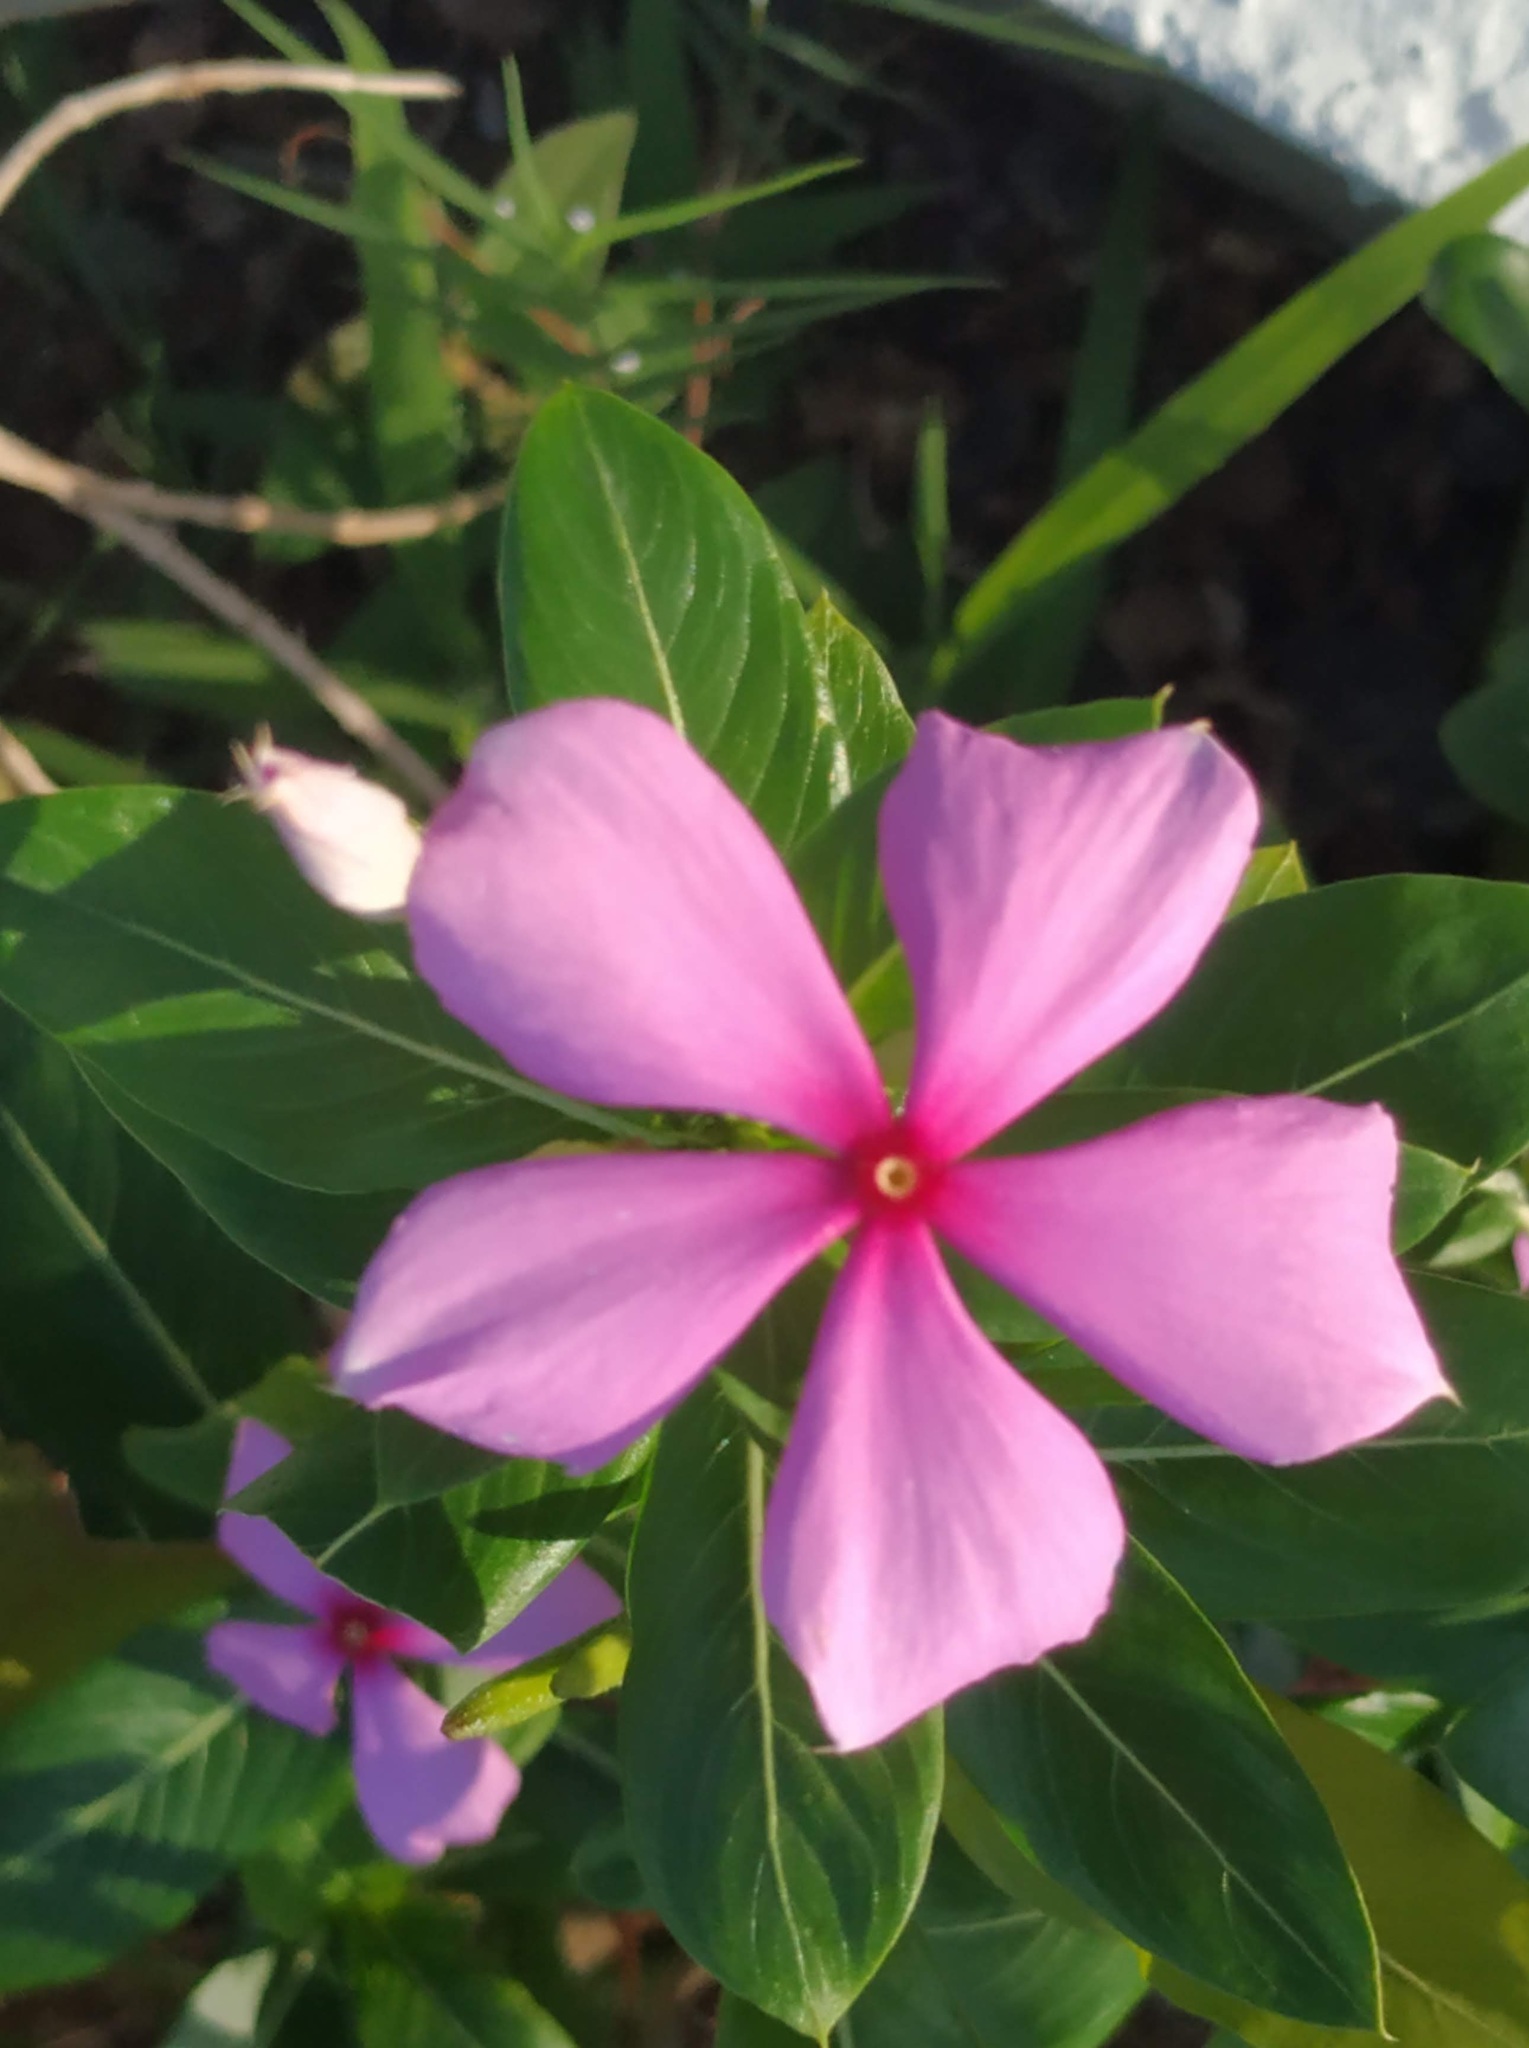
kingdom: Plantae
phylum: Tracheophyta
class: Magnoliopsida
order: Gentianales
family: Apocynaceae
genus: Catharanthus
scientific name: Catharanthus roseus
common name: Madagascar periwinkle
